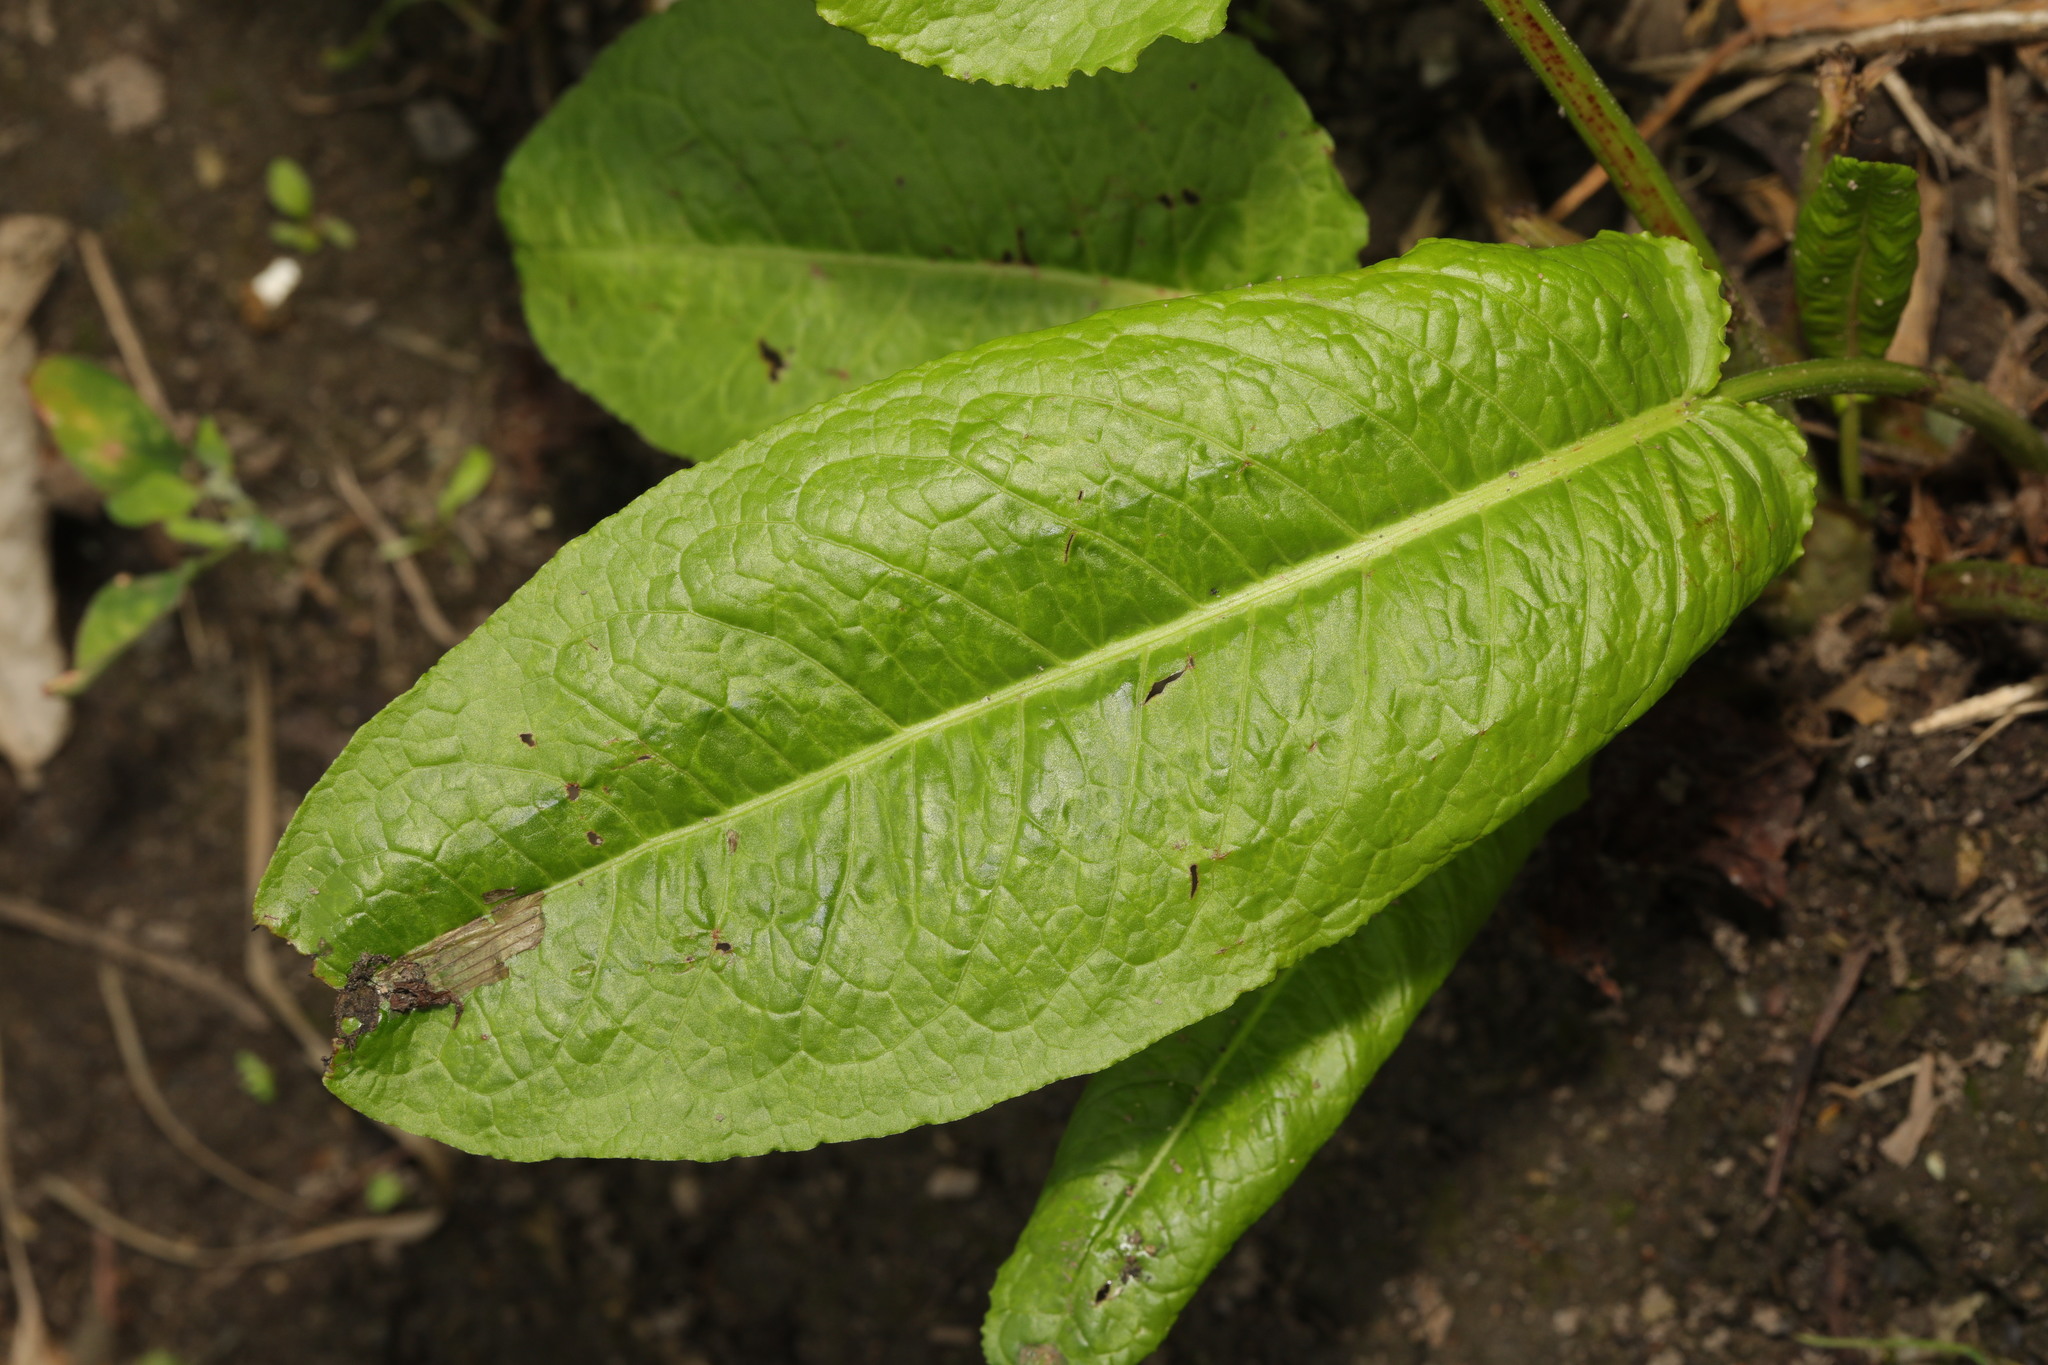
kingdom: Plantae
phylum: Tracheophyta
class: Magnoliopsida
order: Caryophyllales
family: Polygonaceae
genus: Rumex
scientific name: Rumex obtusifolius
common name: Bitter dock
